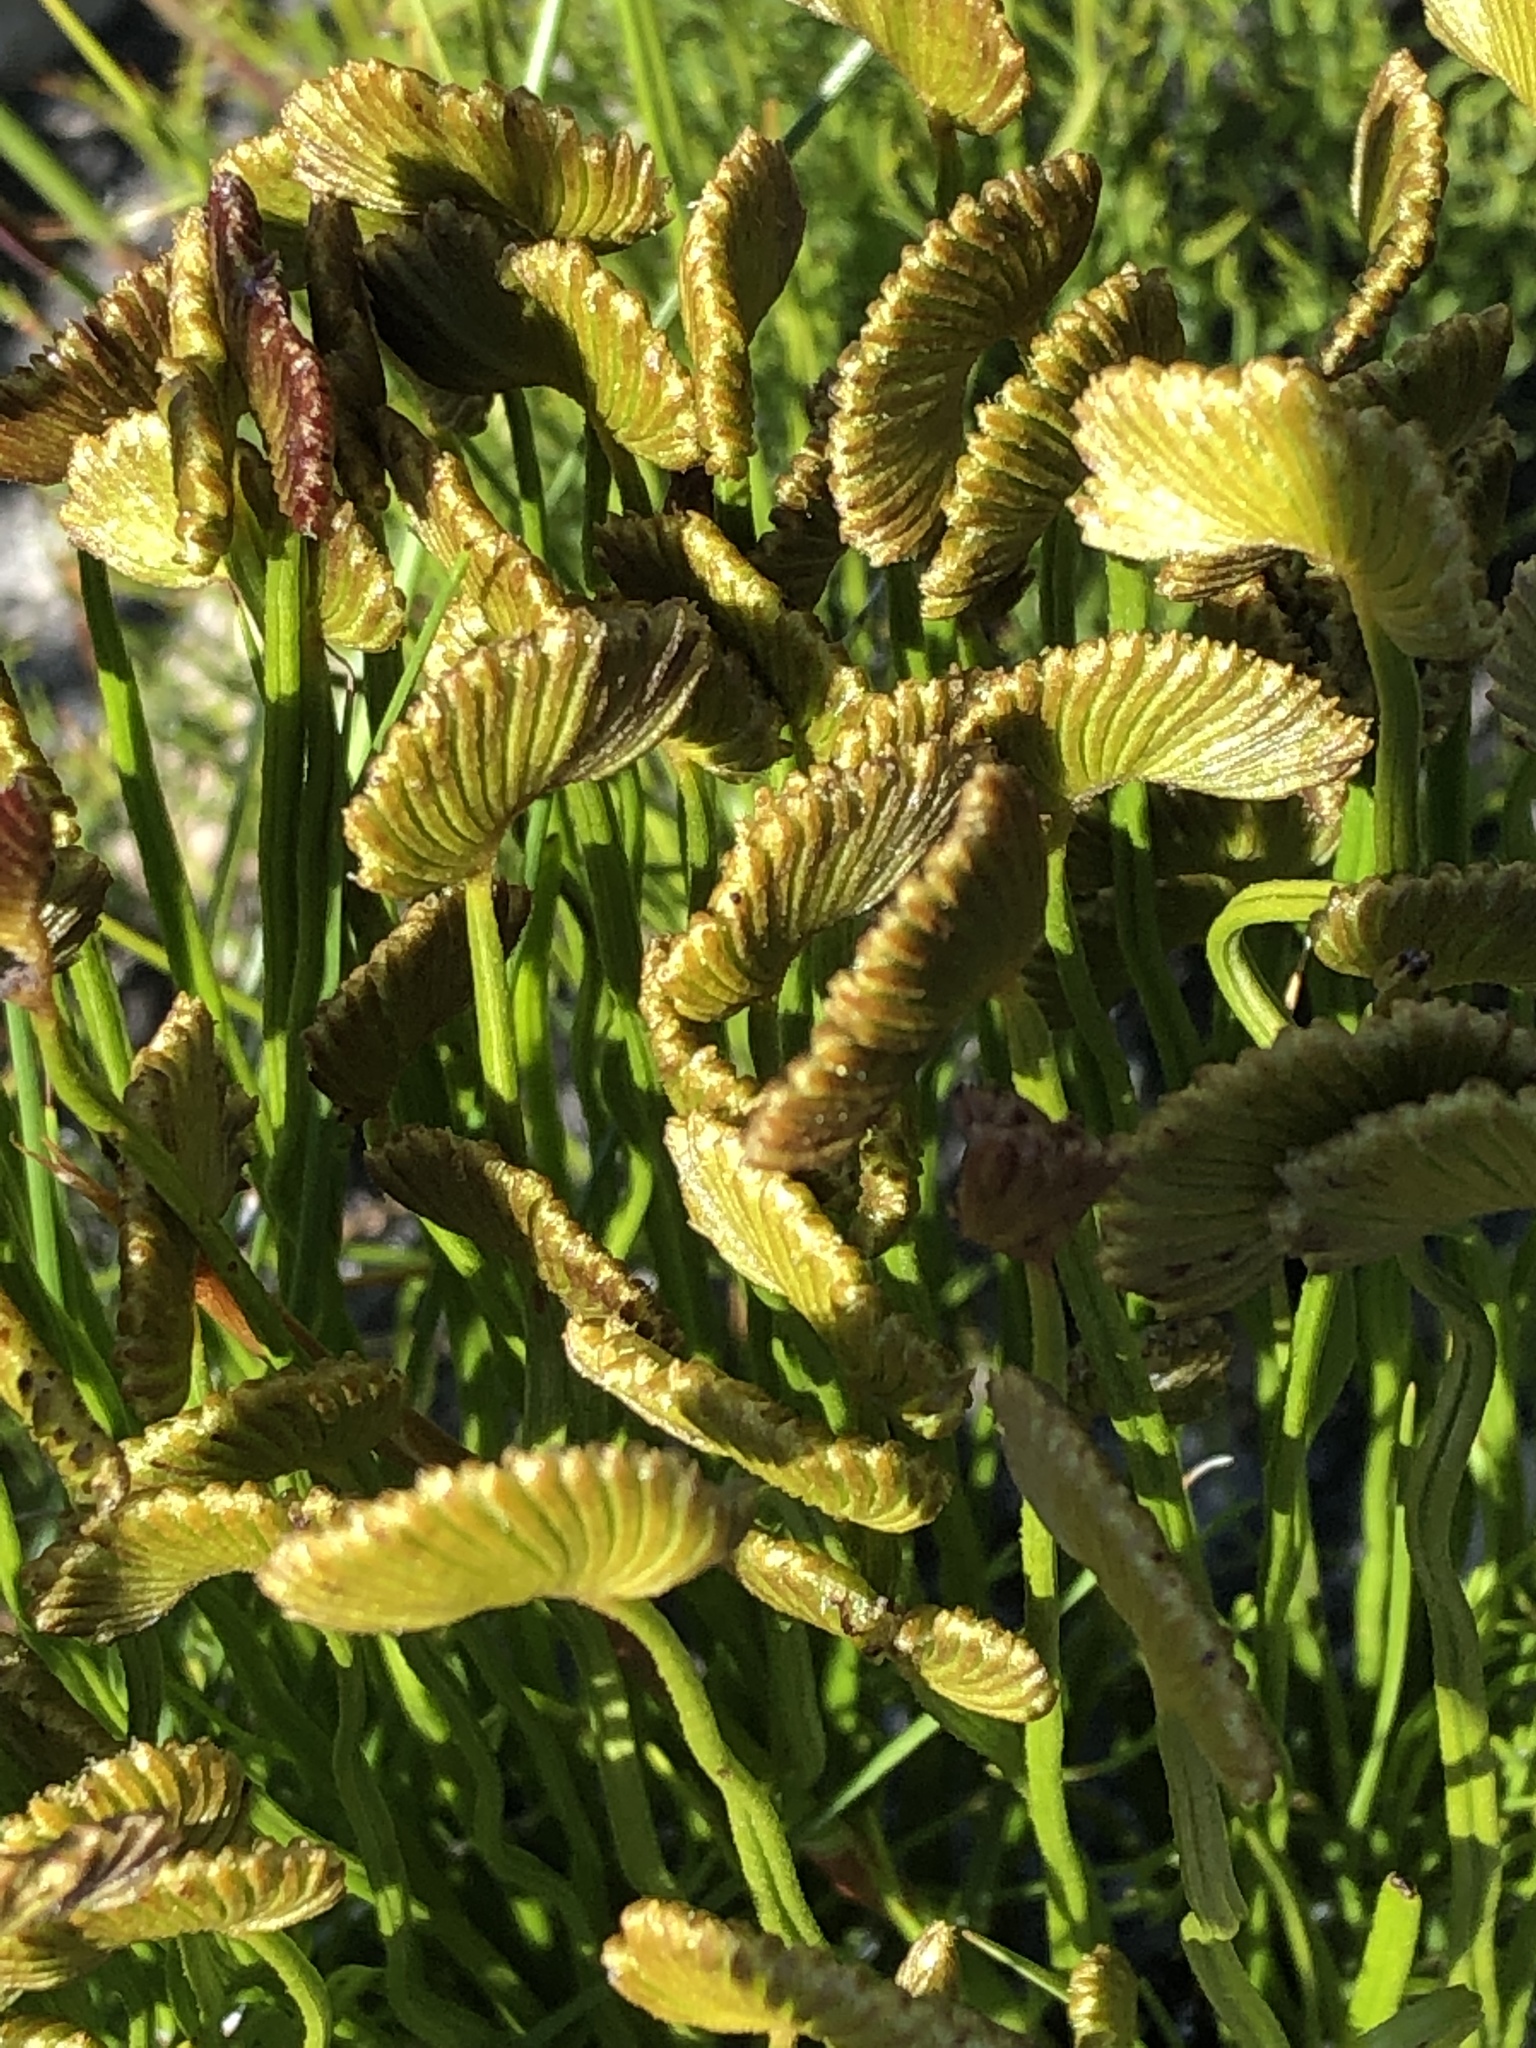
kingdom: Plantae
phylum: Tracheophyta
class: Polypodiopsida
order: Schizaeales
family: Schizaeaceae
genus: Schizaea
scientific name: Schizaea pectinata
